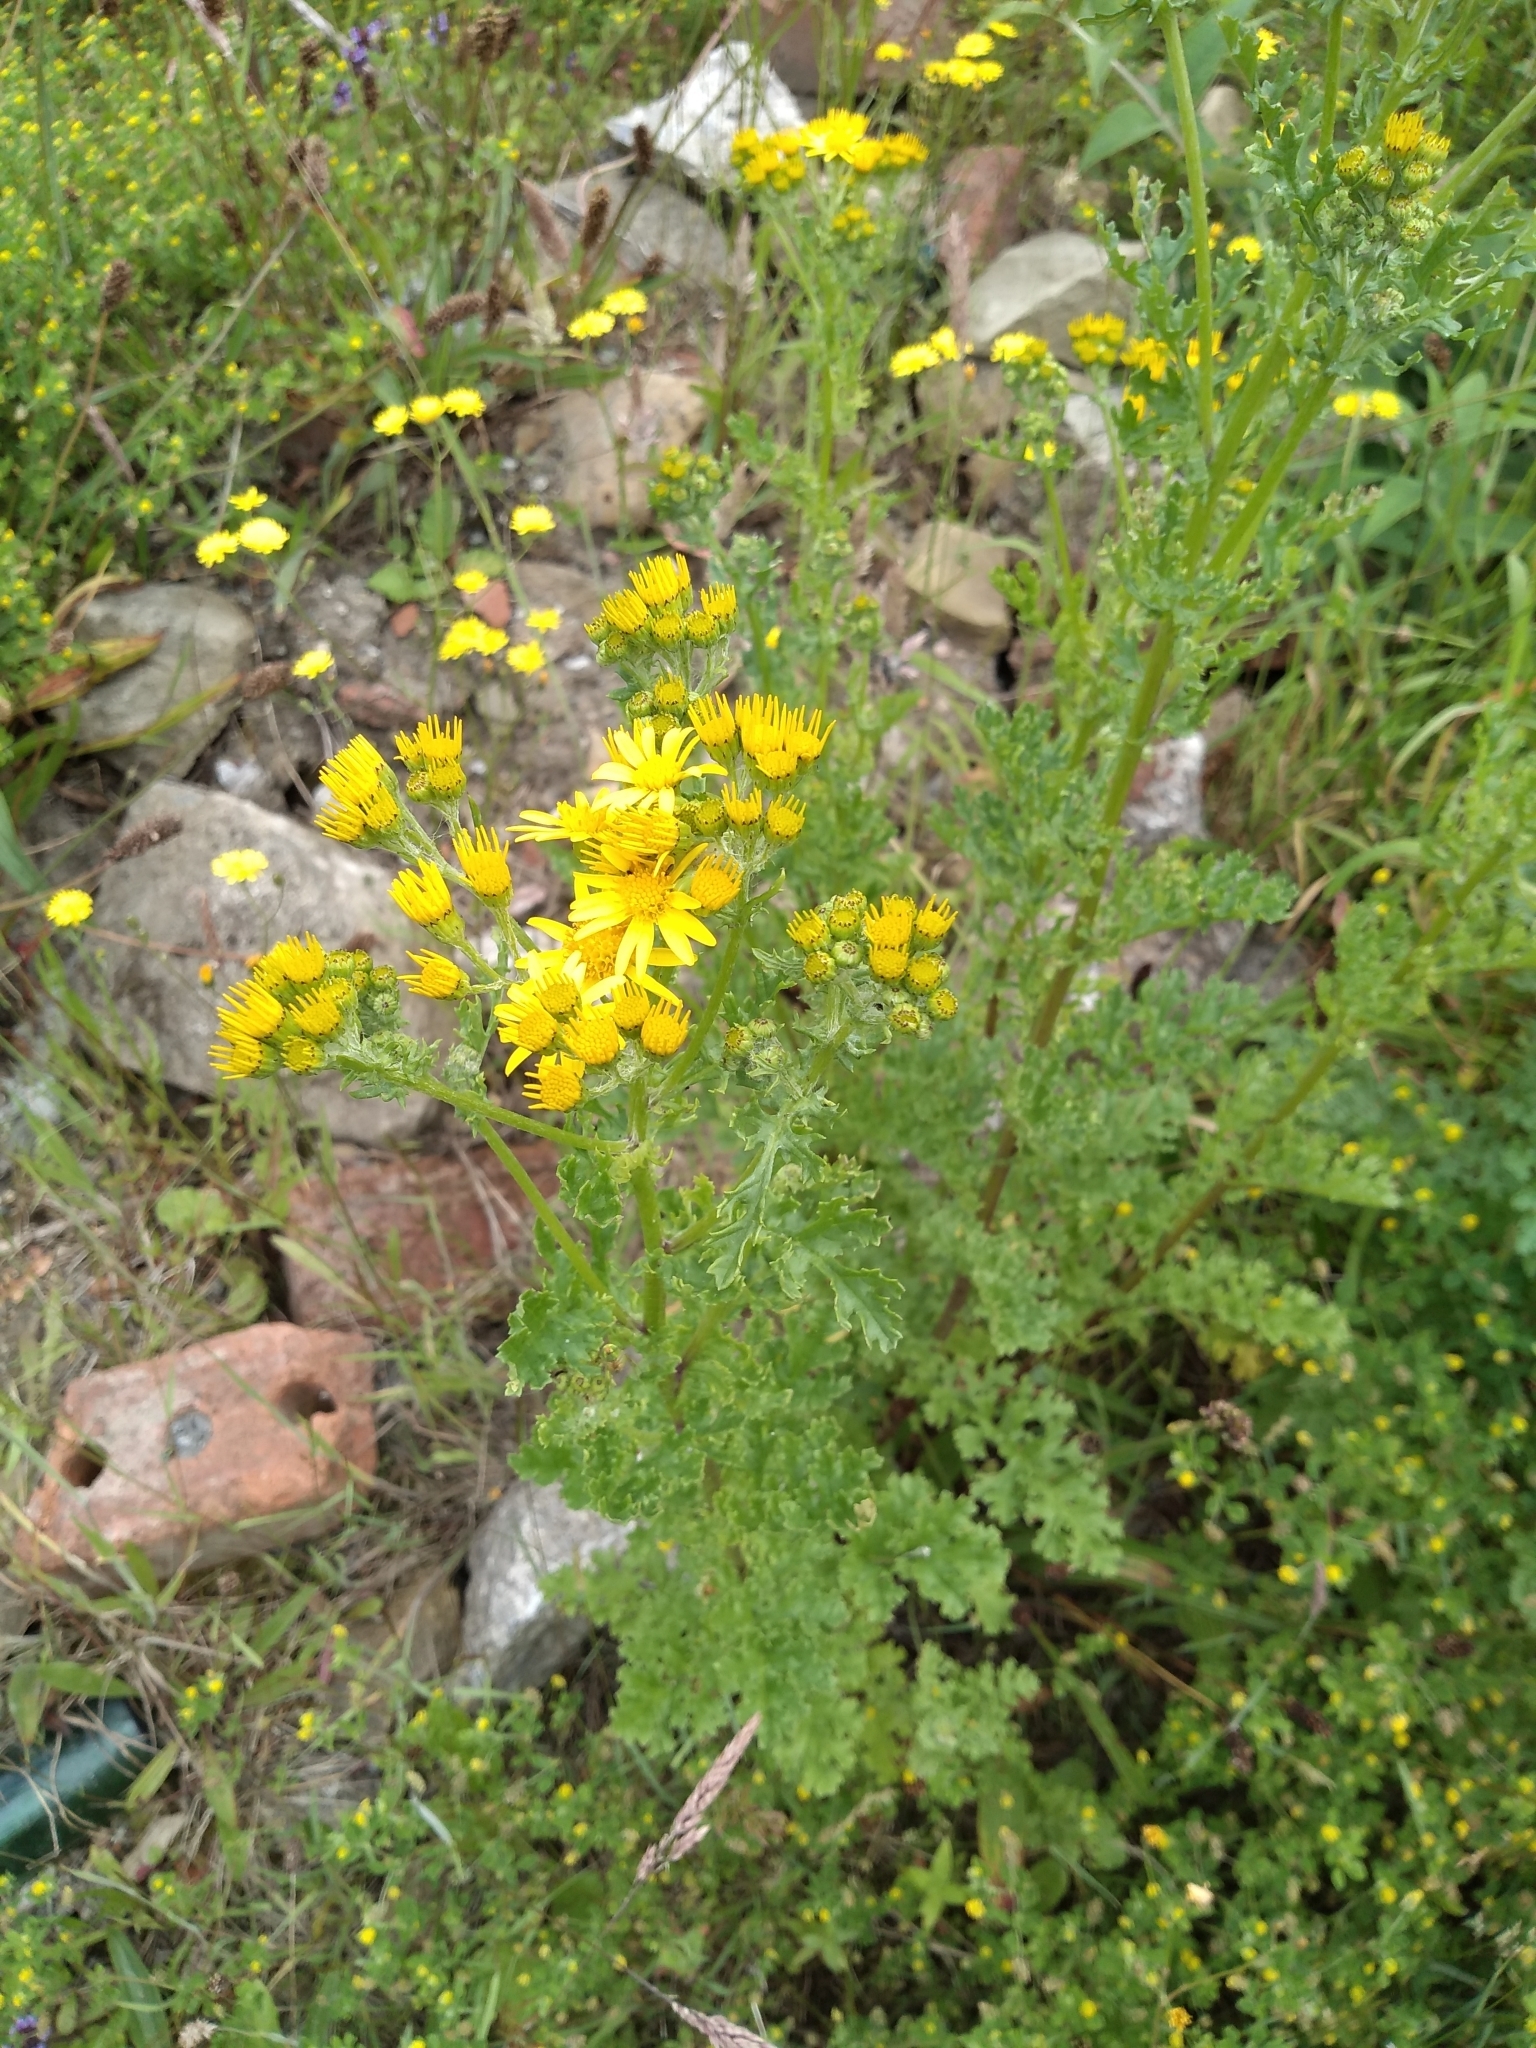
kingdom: Plantae
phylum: Tracheophyta
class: Magnoliopsida
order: Asterales
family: Asteraceae
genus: Jacobaea
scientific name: Jacobaea vulgaris
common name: Stinking willie
